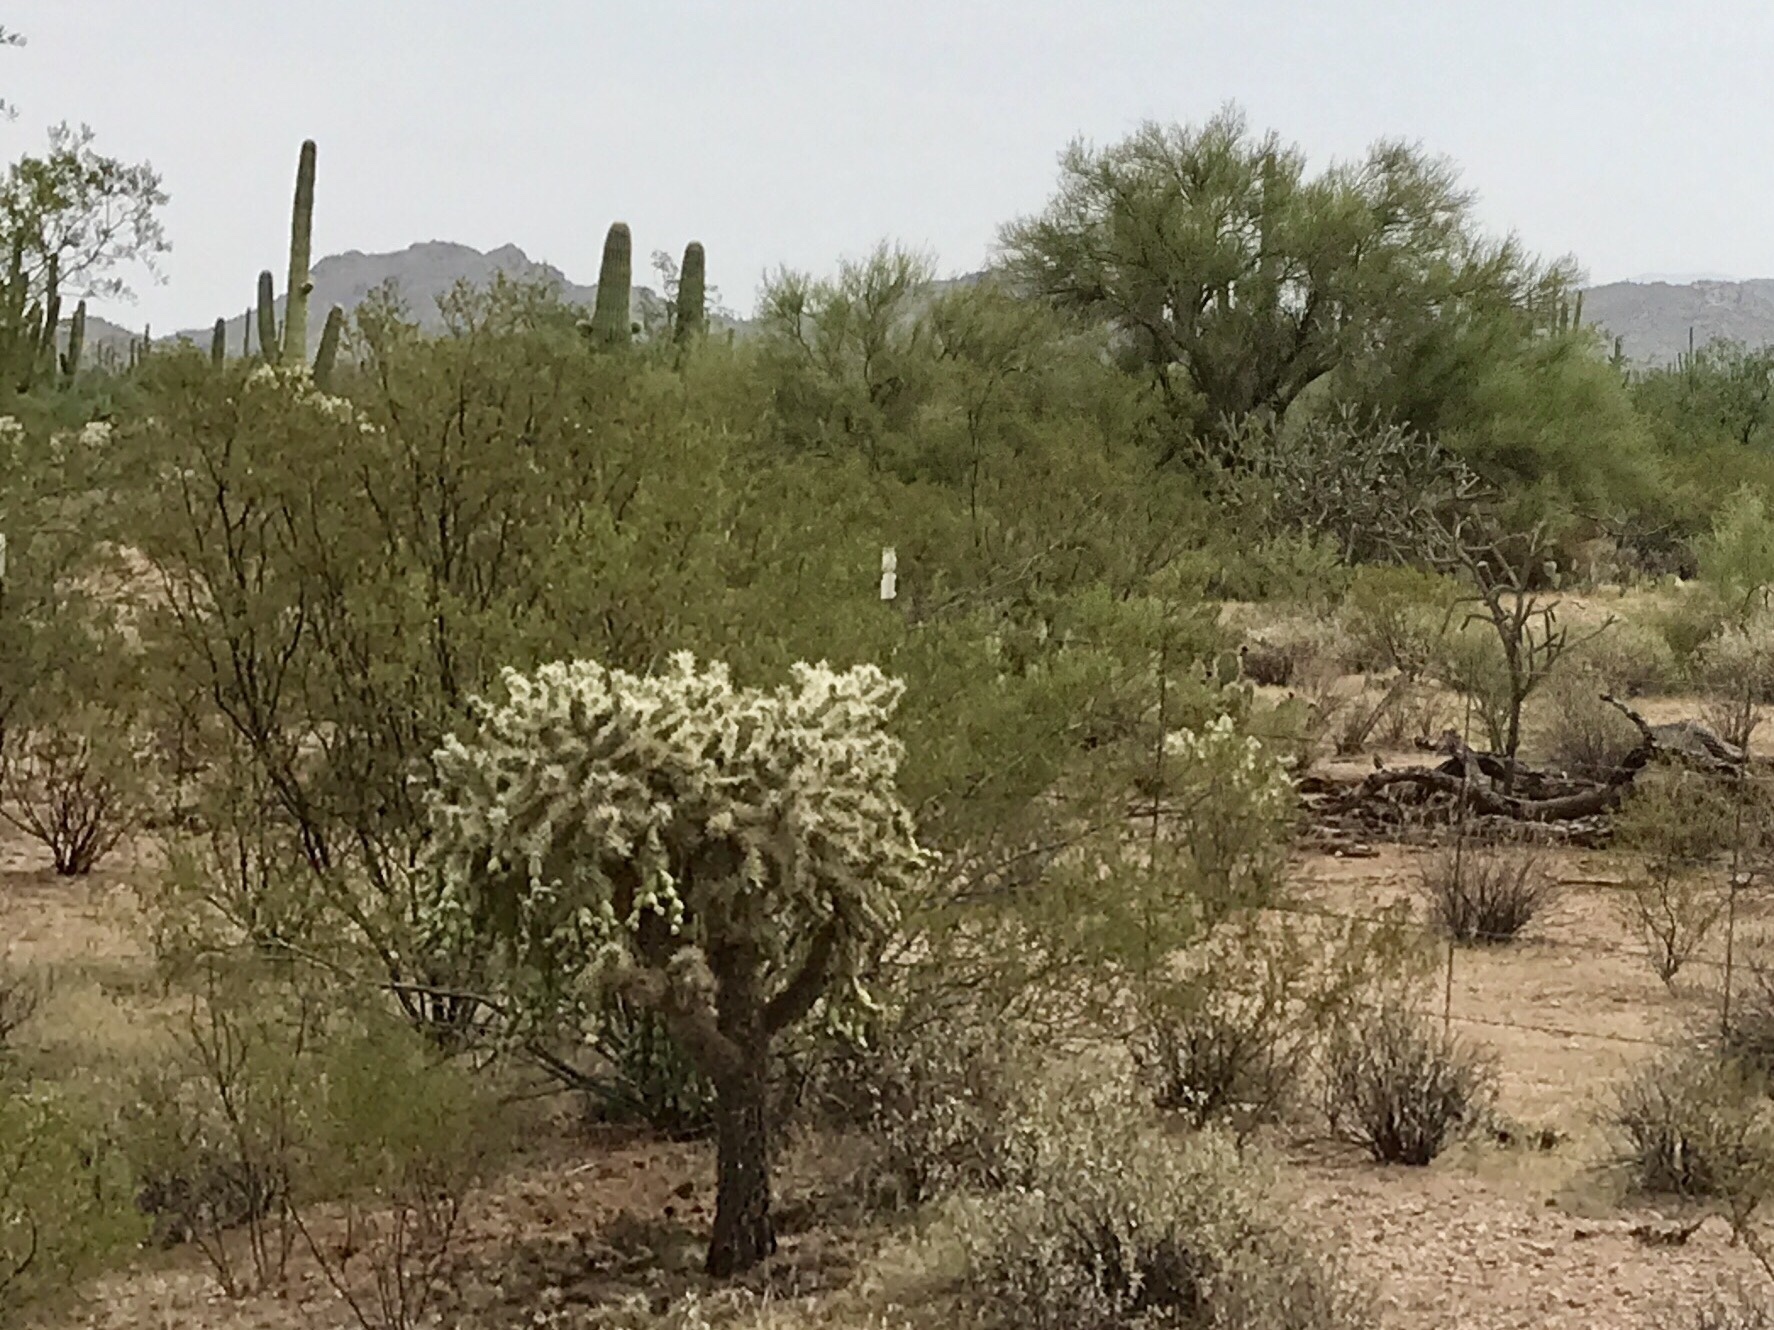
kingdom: Plantae
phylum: Tracheophyta
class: Magnoliopsida
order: Caryophyllales
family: Cactaceae
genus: Cylindropuntia
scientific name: Cylindropuntia fulgida
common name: Jumping cholla
